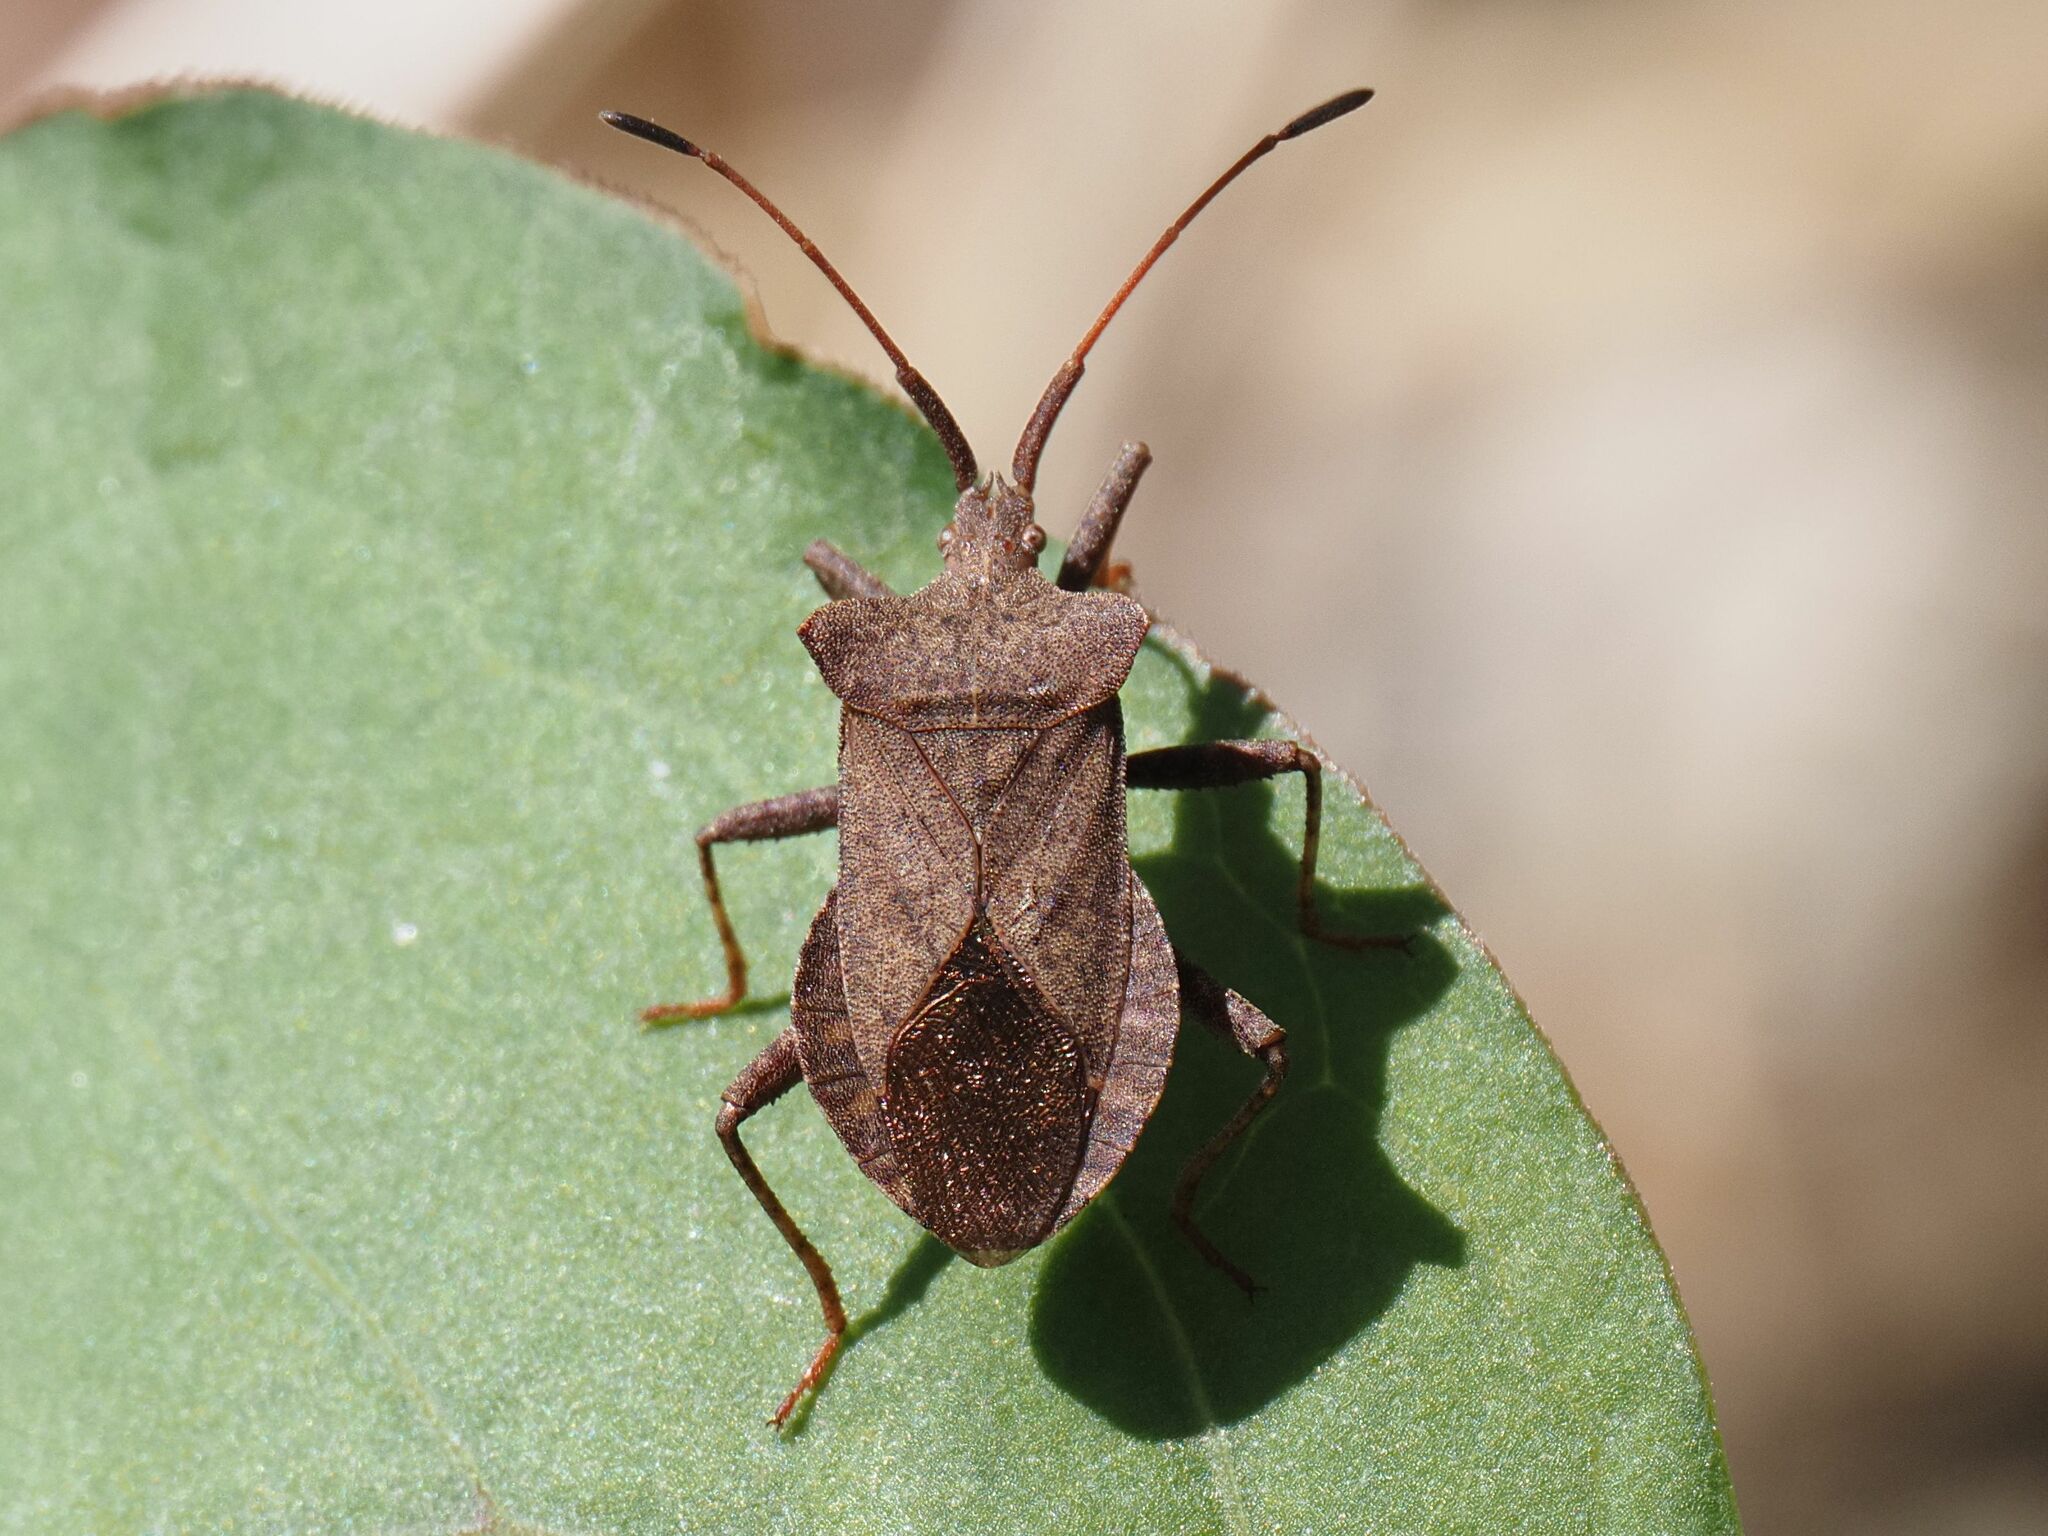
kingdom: Animalia
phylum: Arthropoda
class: Insecta
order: Hemiptera
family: Coreidae
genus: Coreus
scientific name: Coreus marginatus
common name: Dock bug
